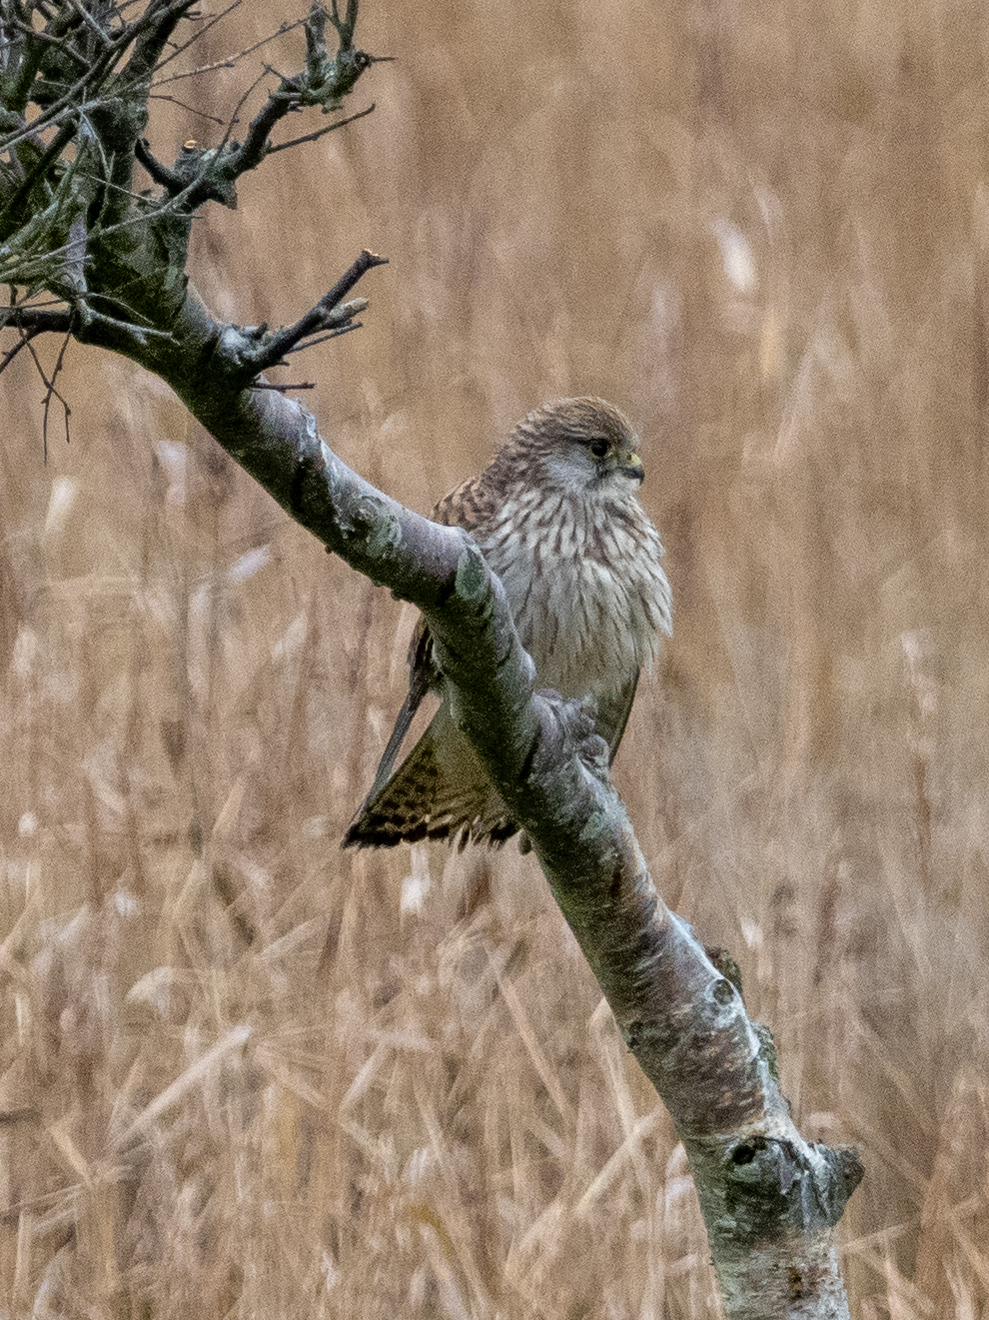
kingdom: Animalia
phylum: Chordata
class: Aves
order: Falconiformes
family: Falconidae
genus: Falco
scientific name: Falco tinnunculus
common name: Common kestrel
